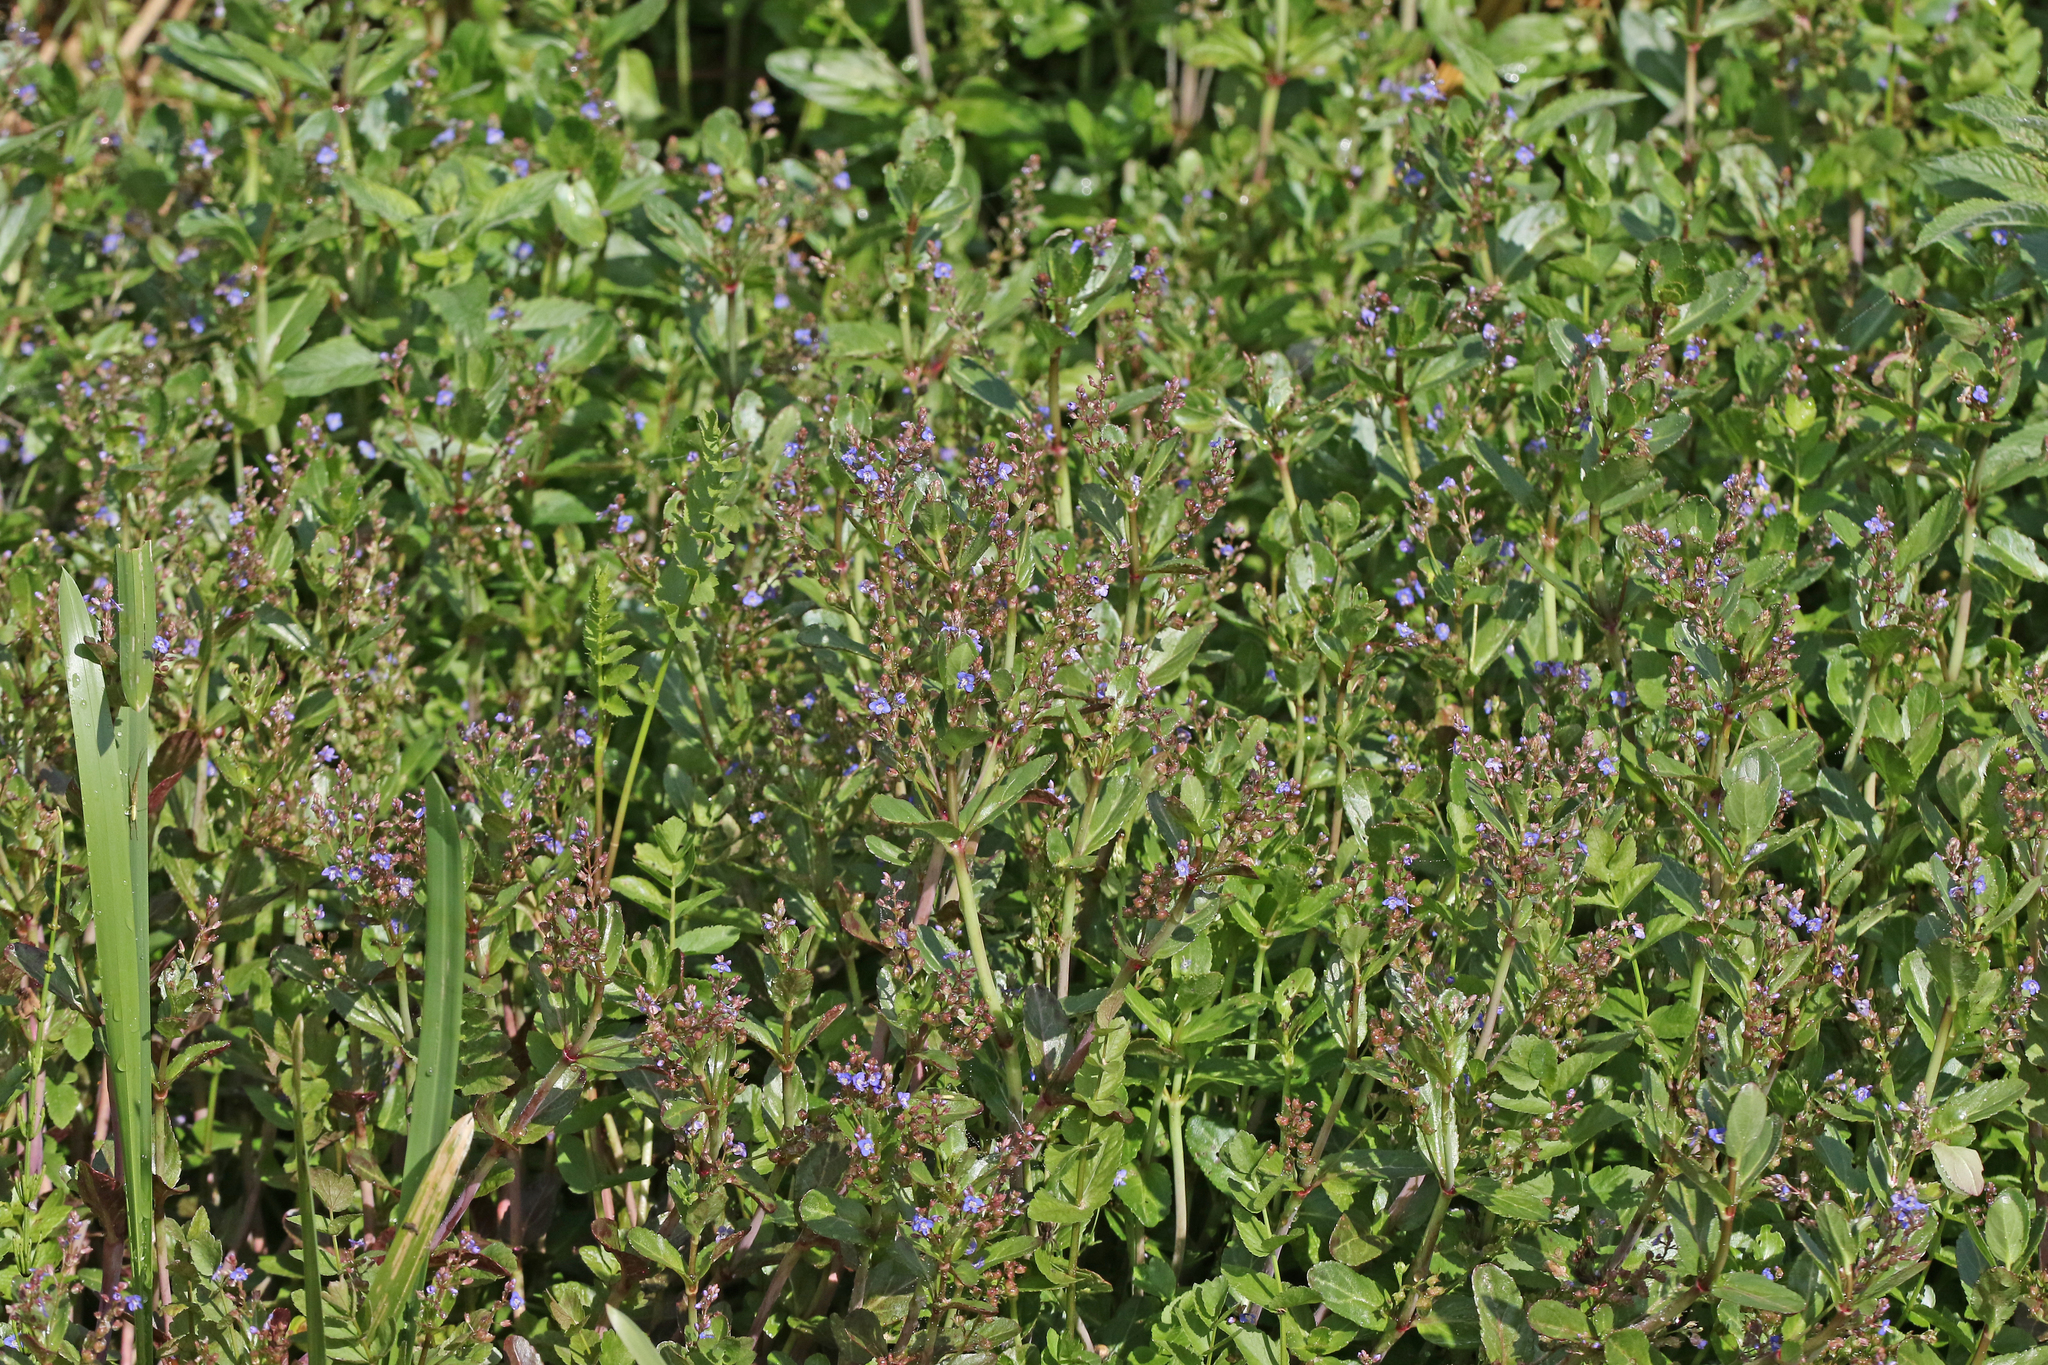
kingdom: Plantae
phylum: Tracheophyta
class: Magnoliopsida
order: Lamiales
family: Plantaginaceae
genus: Veronica
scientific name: Veronica beccabunga
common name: Brooklime
